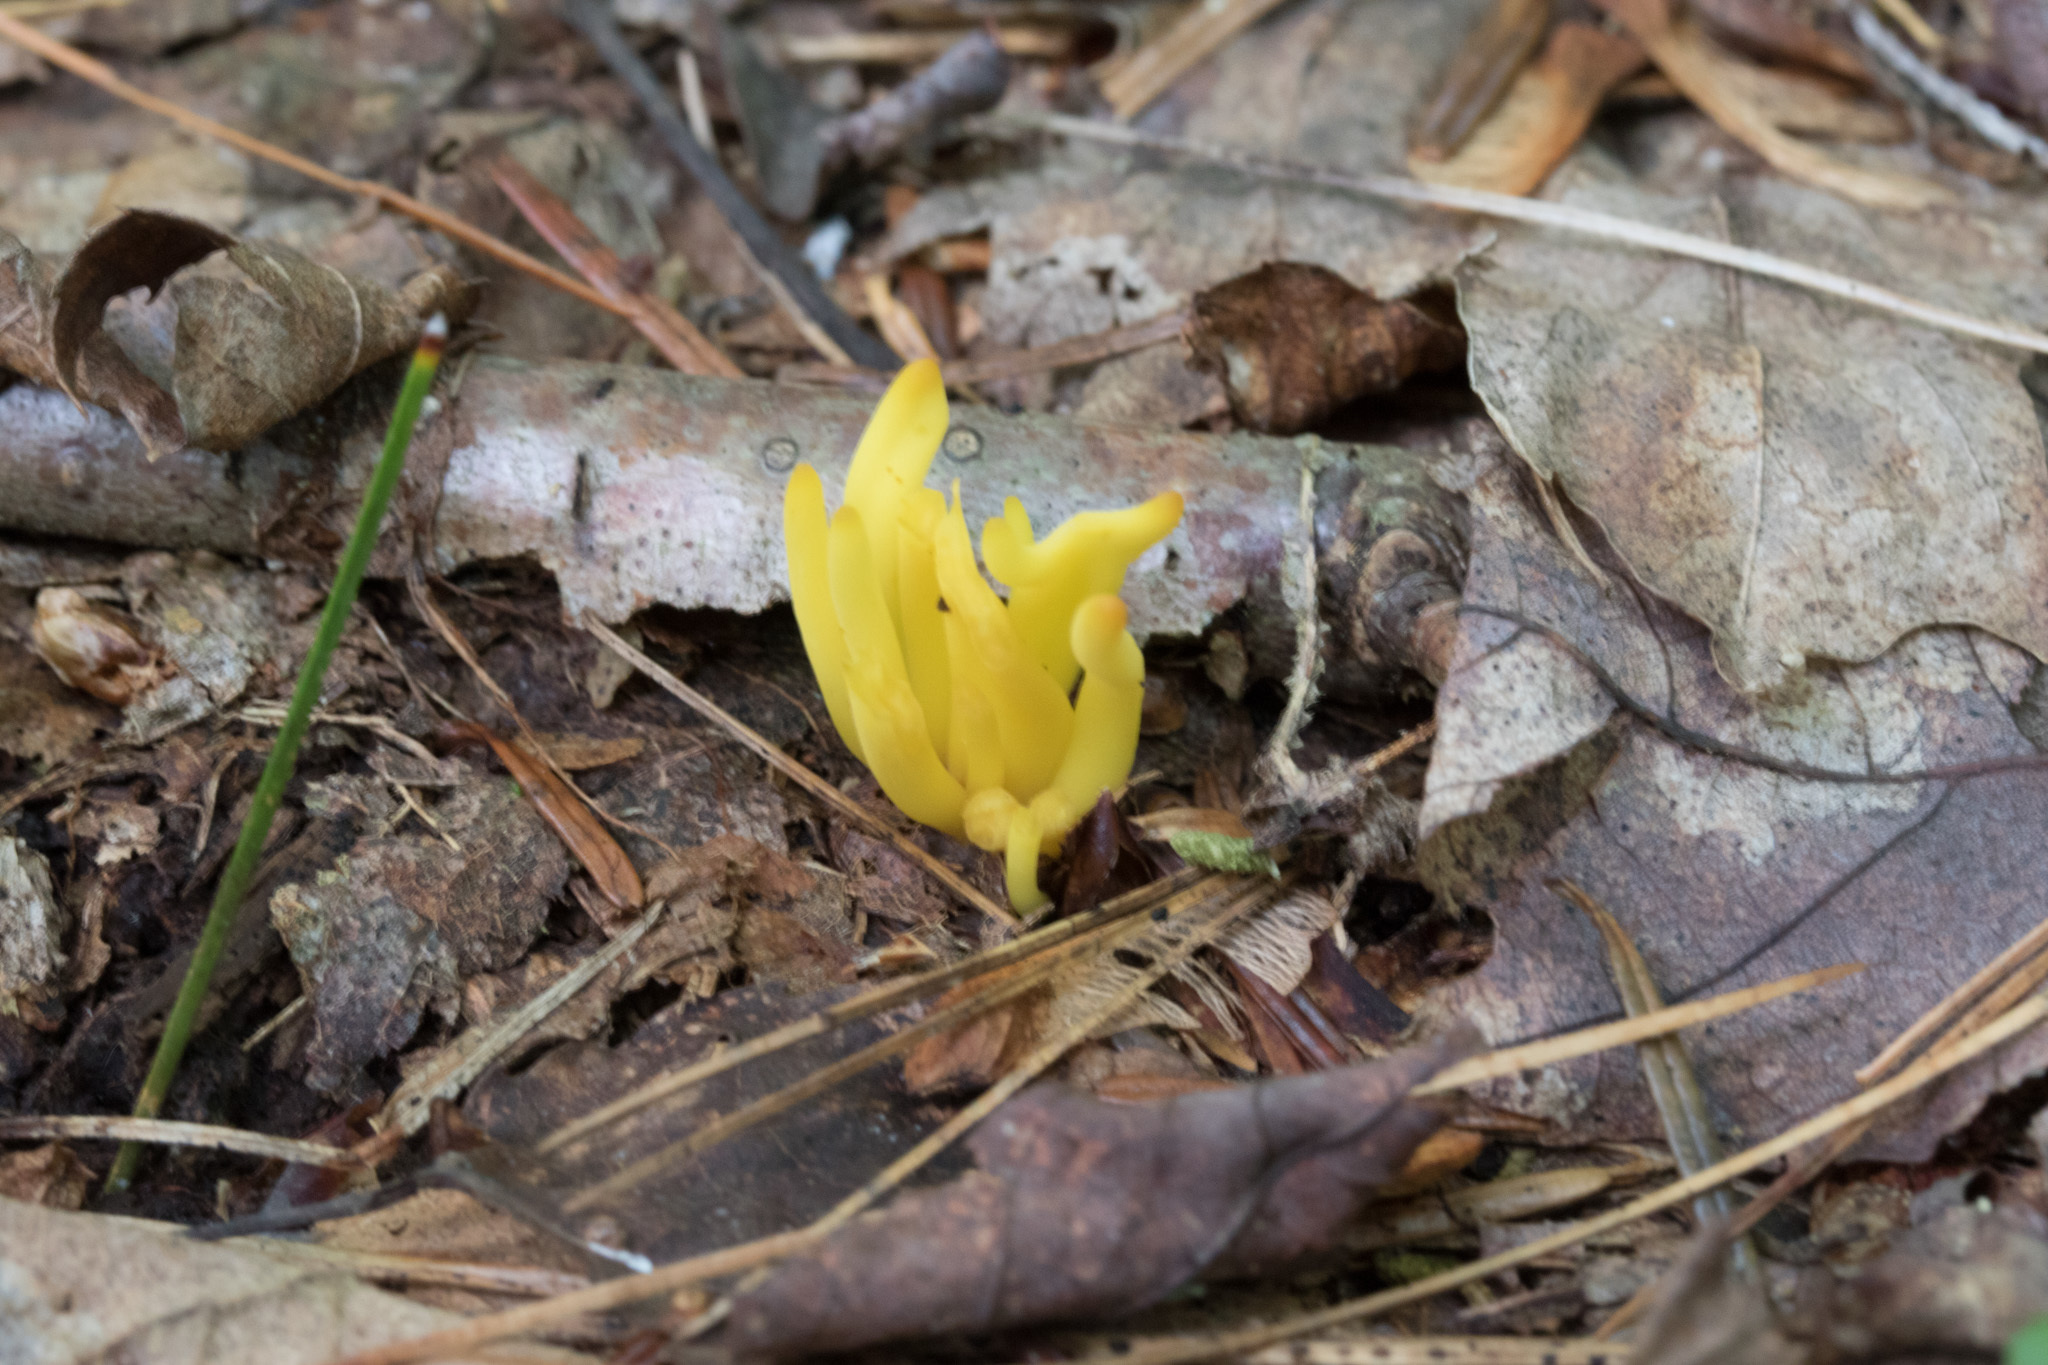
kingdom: Fungi
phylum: Basidiomycota
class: Agaricomycetes
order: Agaricales
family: Clavariaceae
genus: Clavulinopsis
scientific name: Clavulinopsis fusiformis
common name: Golden spindles
